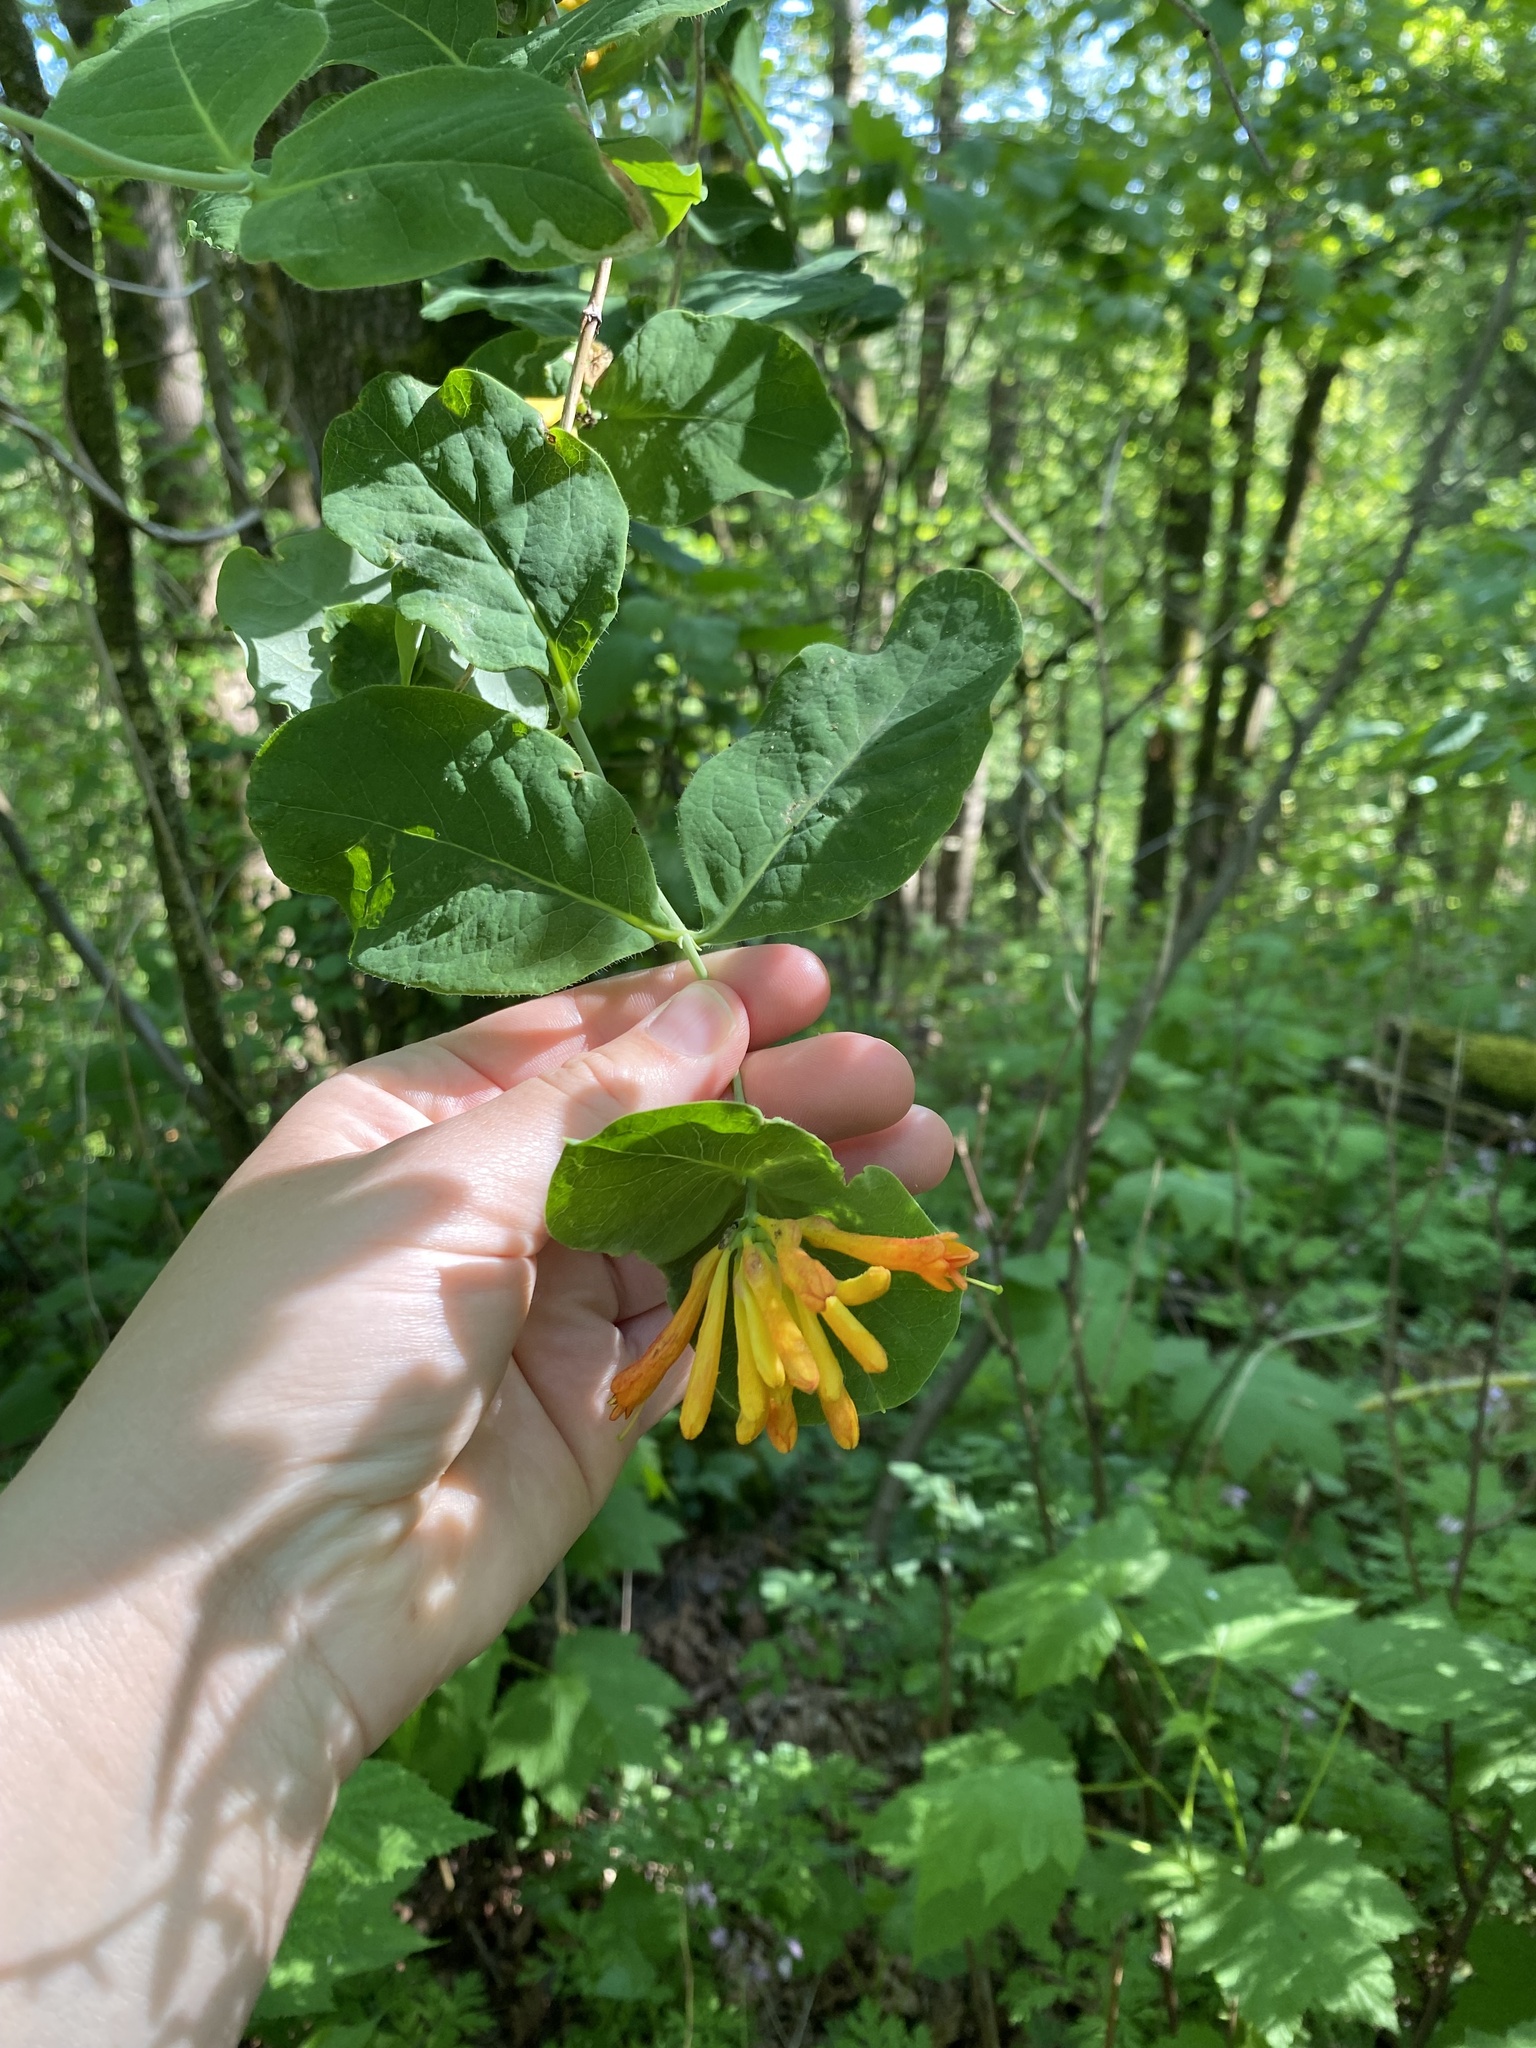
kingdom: Plantae
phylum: Tracheophyta
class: Magnoliopsida
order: Dipsacales
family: Caprifoliaceae
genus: Lonicera
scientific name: Lonicera ciliosa
